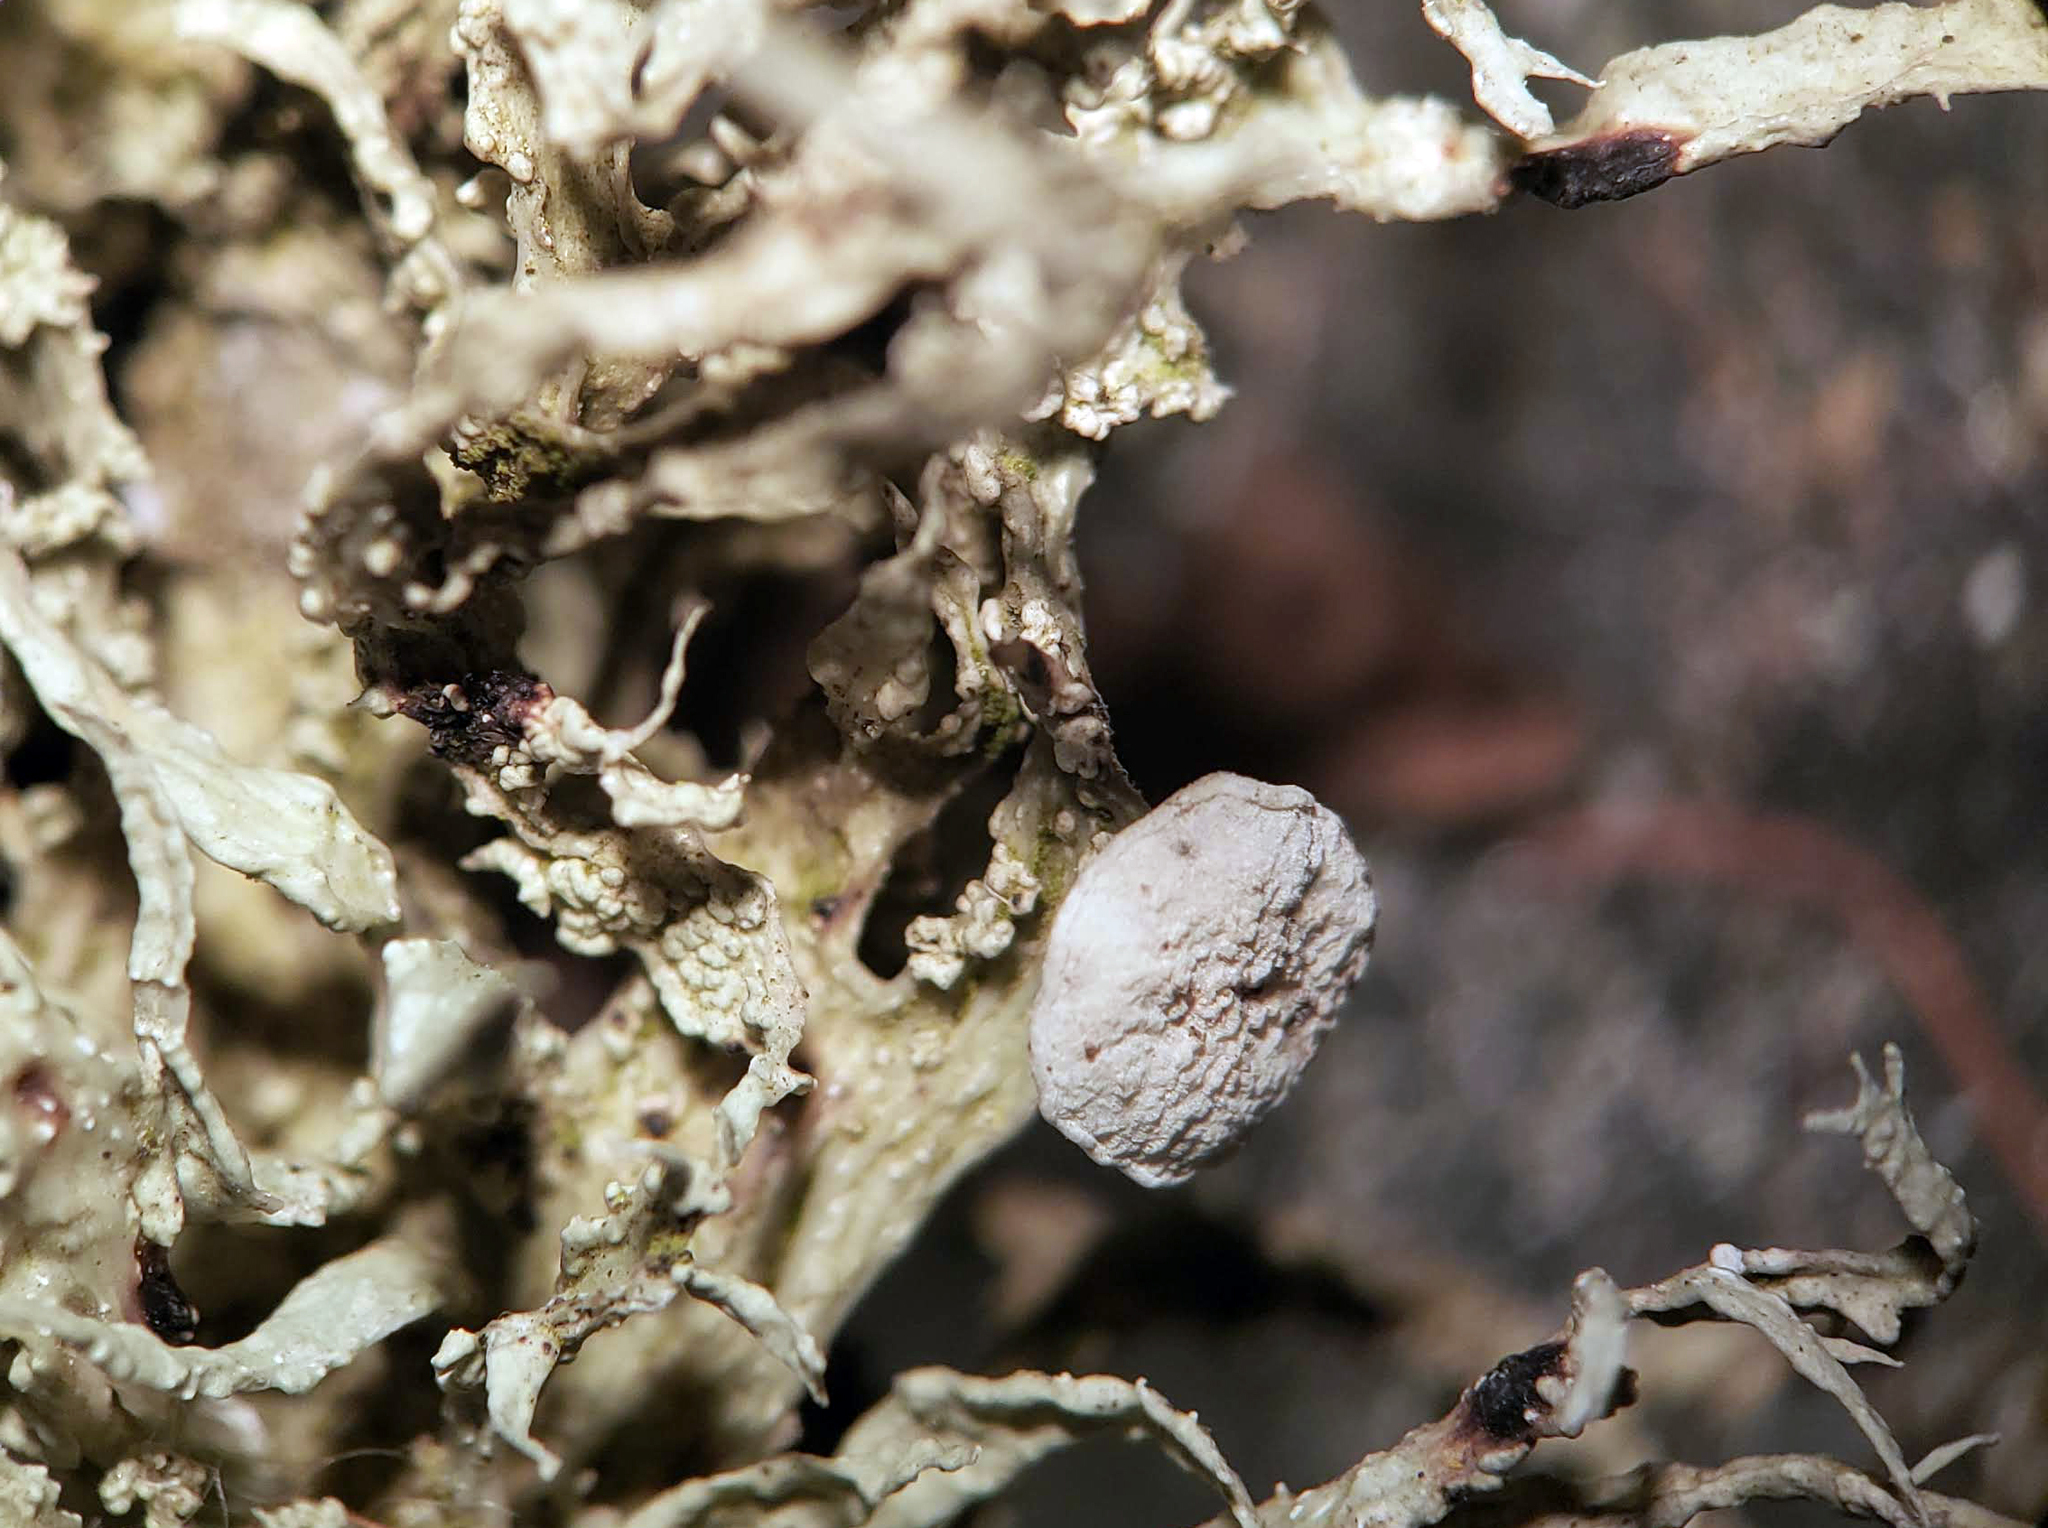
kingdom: Fungi
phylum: Ascomycota
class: Lecanoromycetes
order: Lecanorales
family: Ramalinaceae
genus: Ramalina
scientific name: Ramalina americana
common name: Sinewed bush lichen
